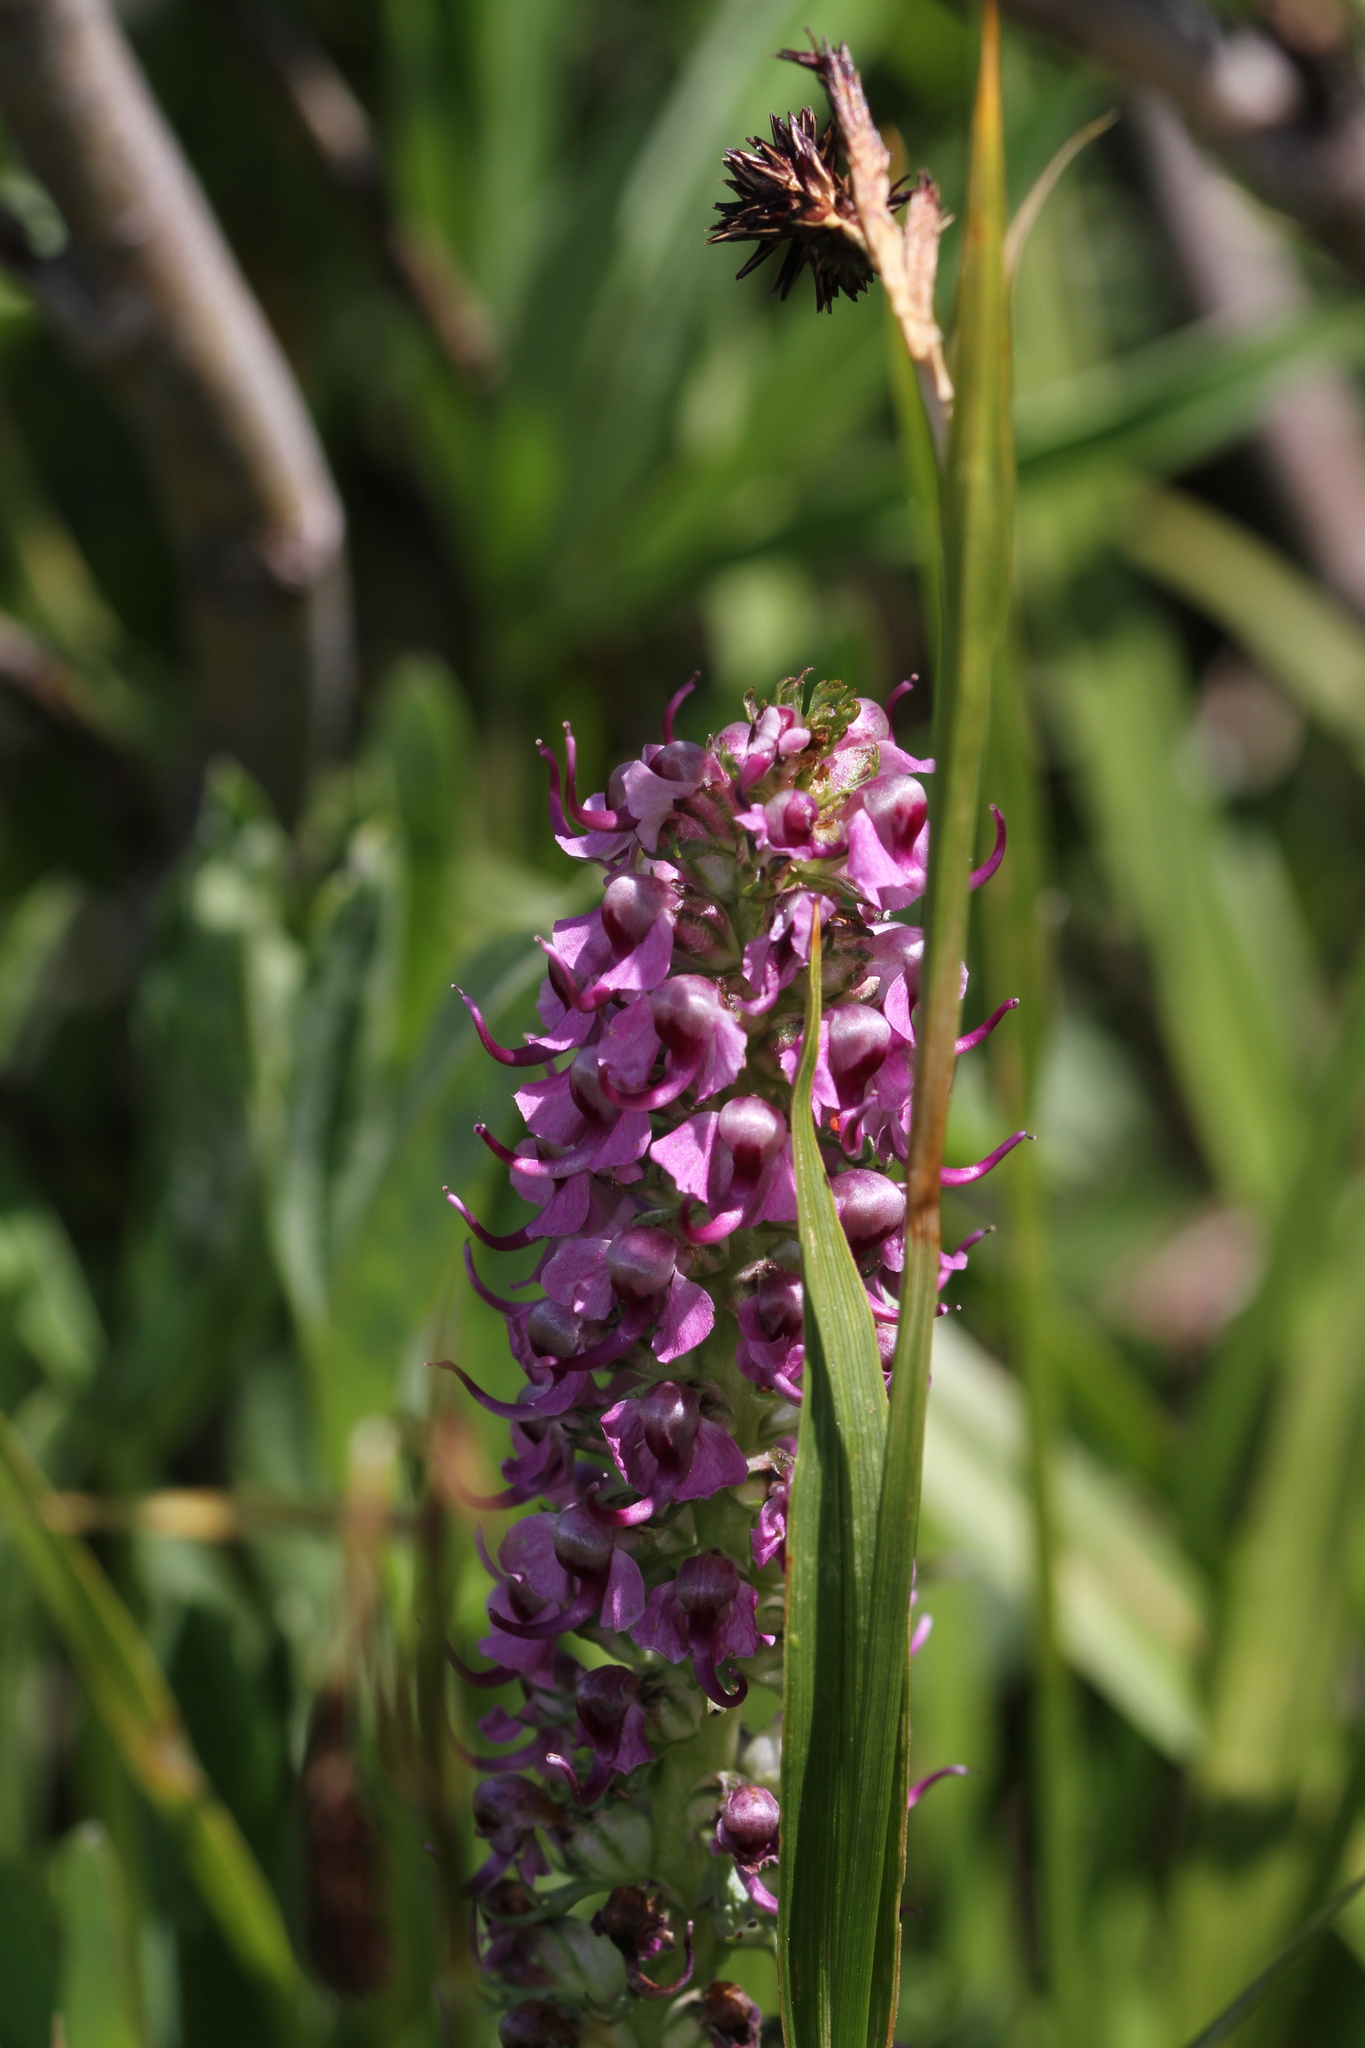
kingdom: Plantae
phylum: Tracheophyta
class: Magnoliopsida
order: Lamiales
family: Orobanchaceae
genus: Pedicularis
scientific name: Pedicularis groenlandica
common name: Elephant's-head
